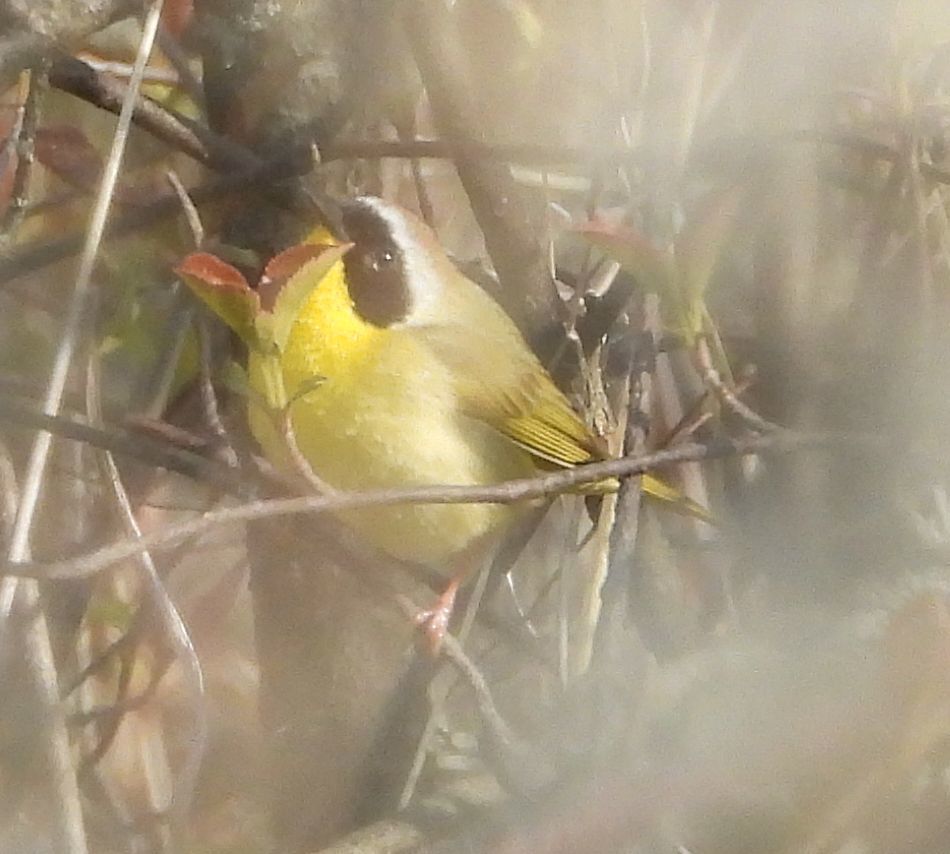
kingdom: Animalia
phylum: Chordata
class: Aves
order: Passeriformes
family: Parulidae
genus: Geothlypis
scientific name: Geothlypis trichas
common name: Common yellowthroat
